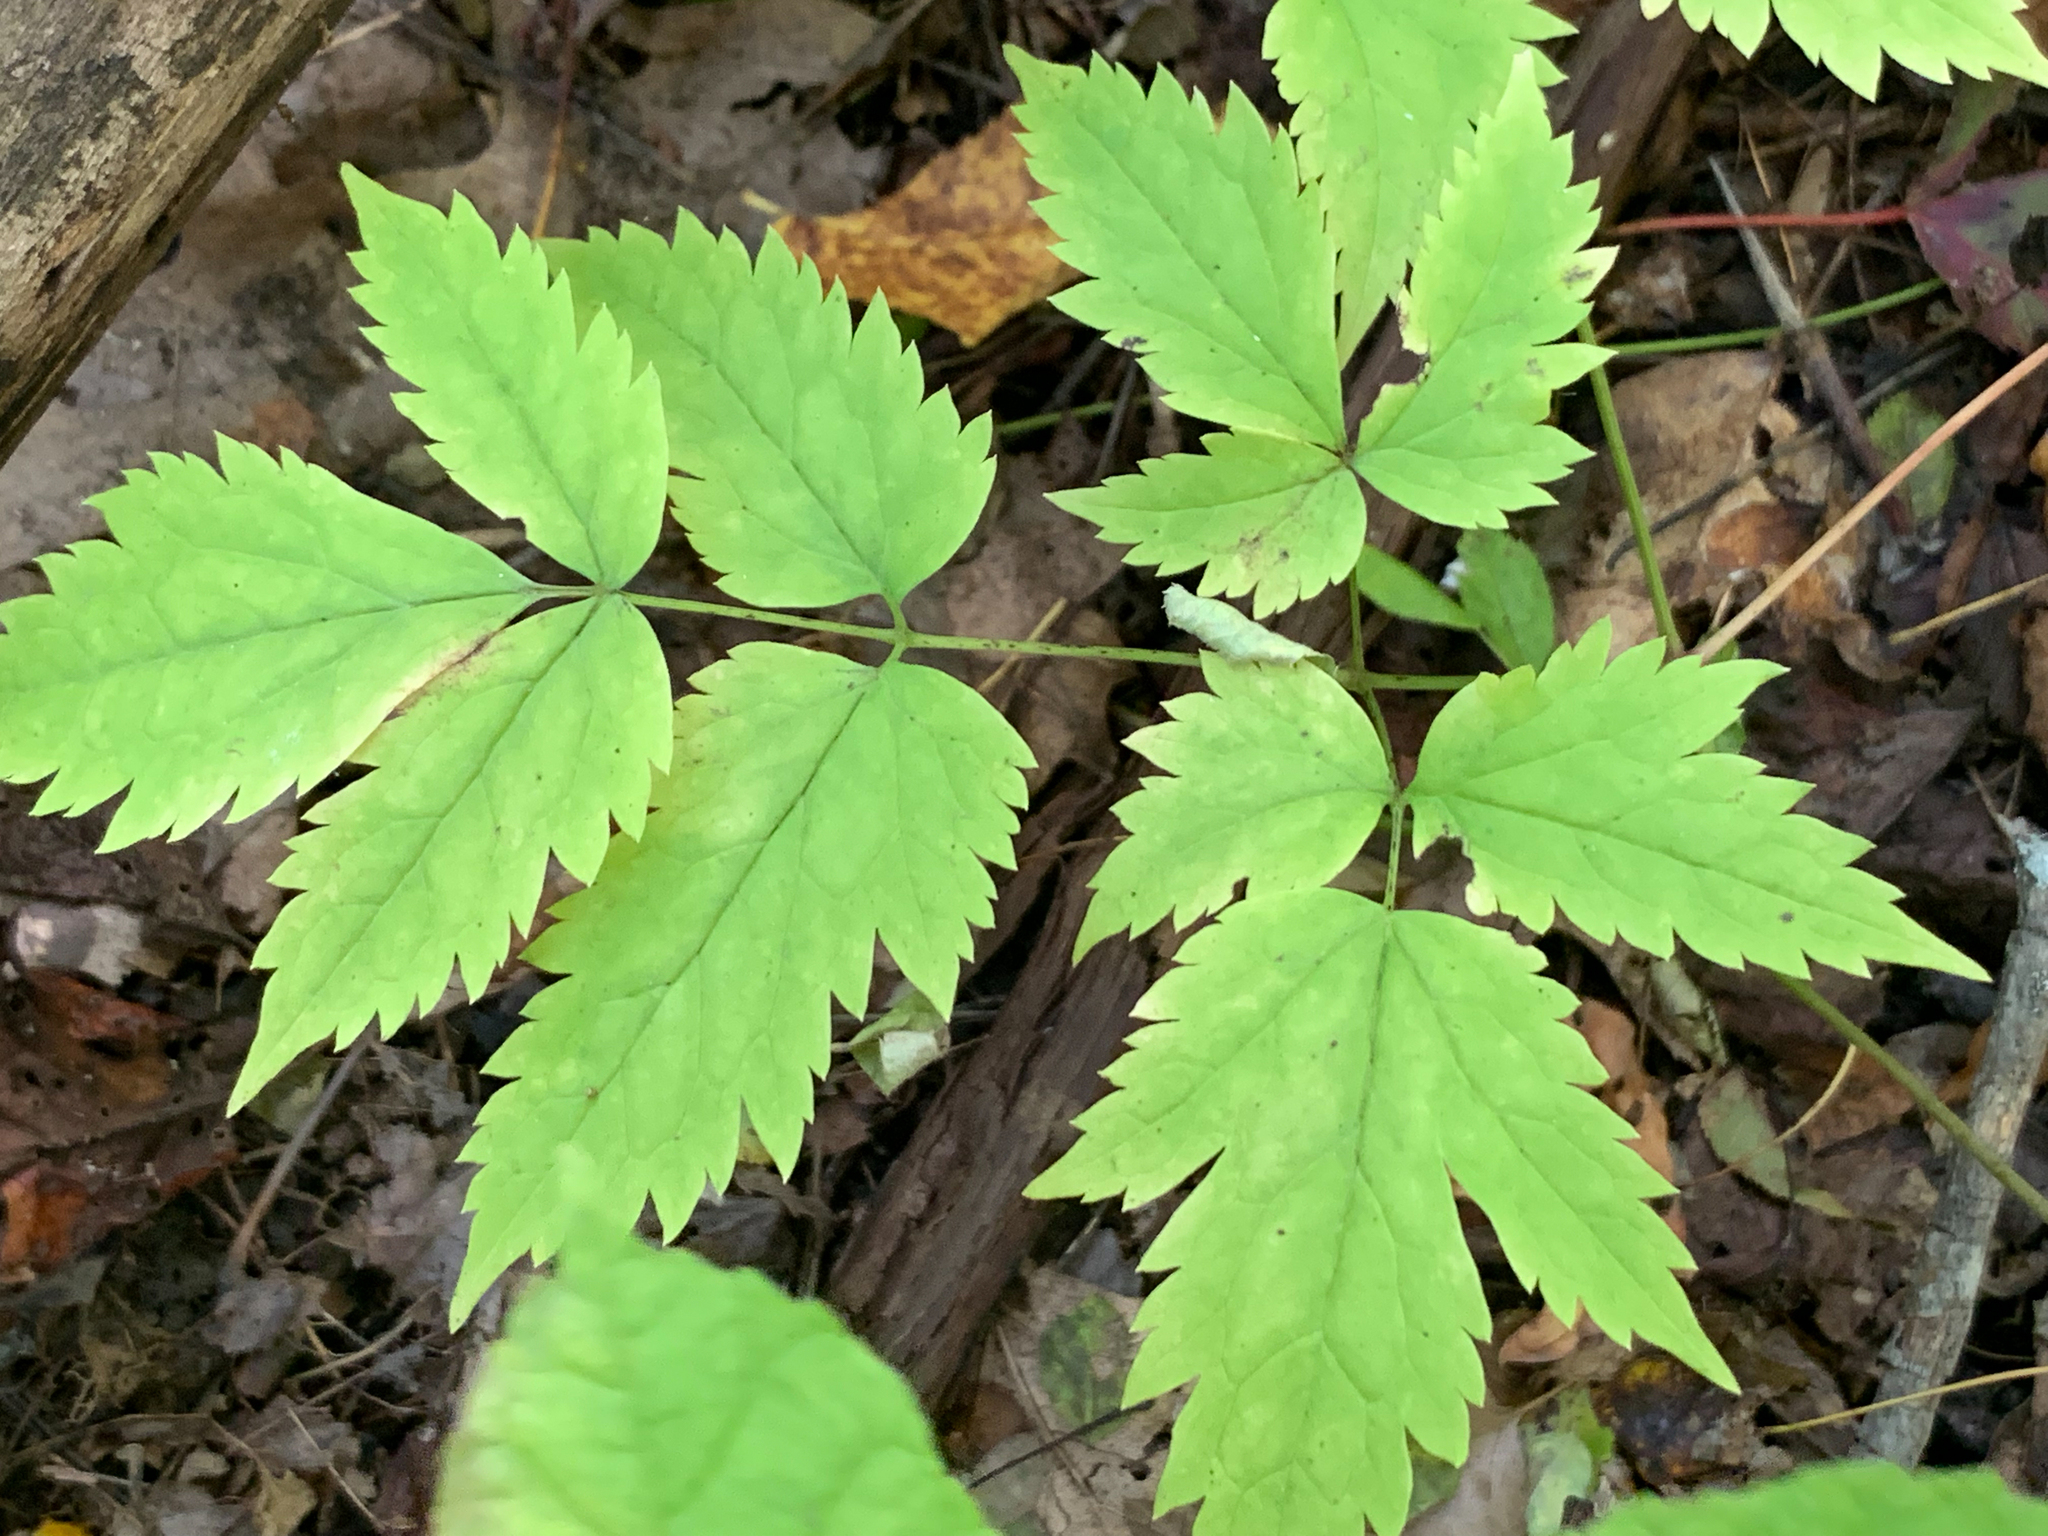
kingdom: Plantae
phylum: Tracheophyta
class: Magnoliopsida
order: Ranunculales
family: Ranunculaceae
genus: Actaea
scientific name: Actaea pachypoda
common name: Doll's-eyes
